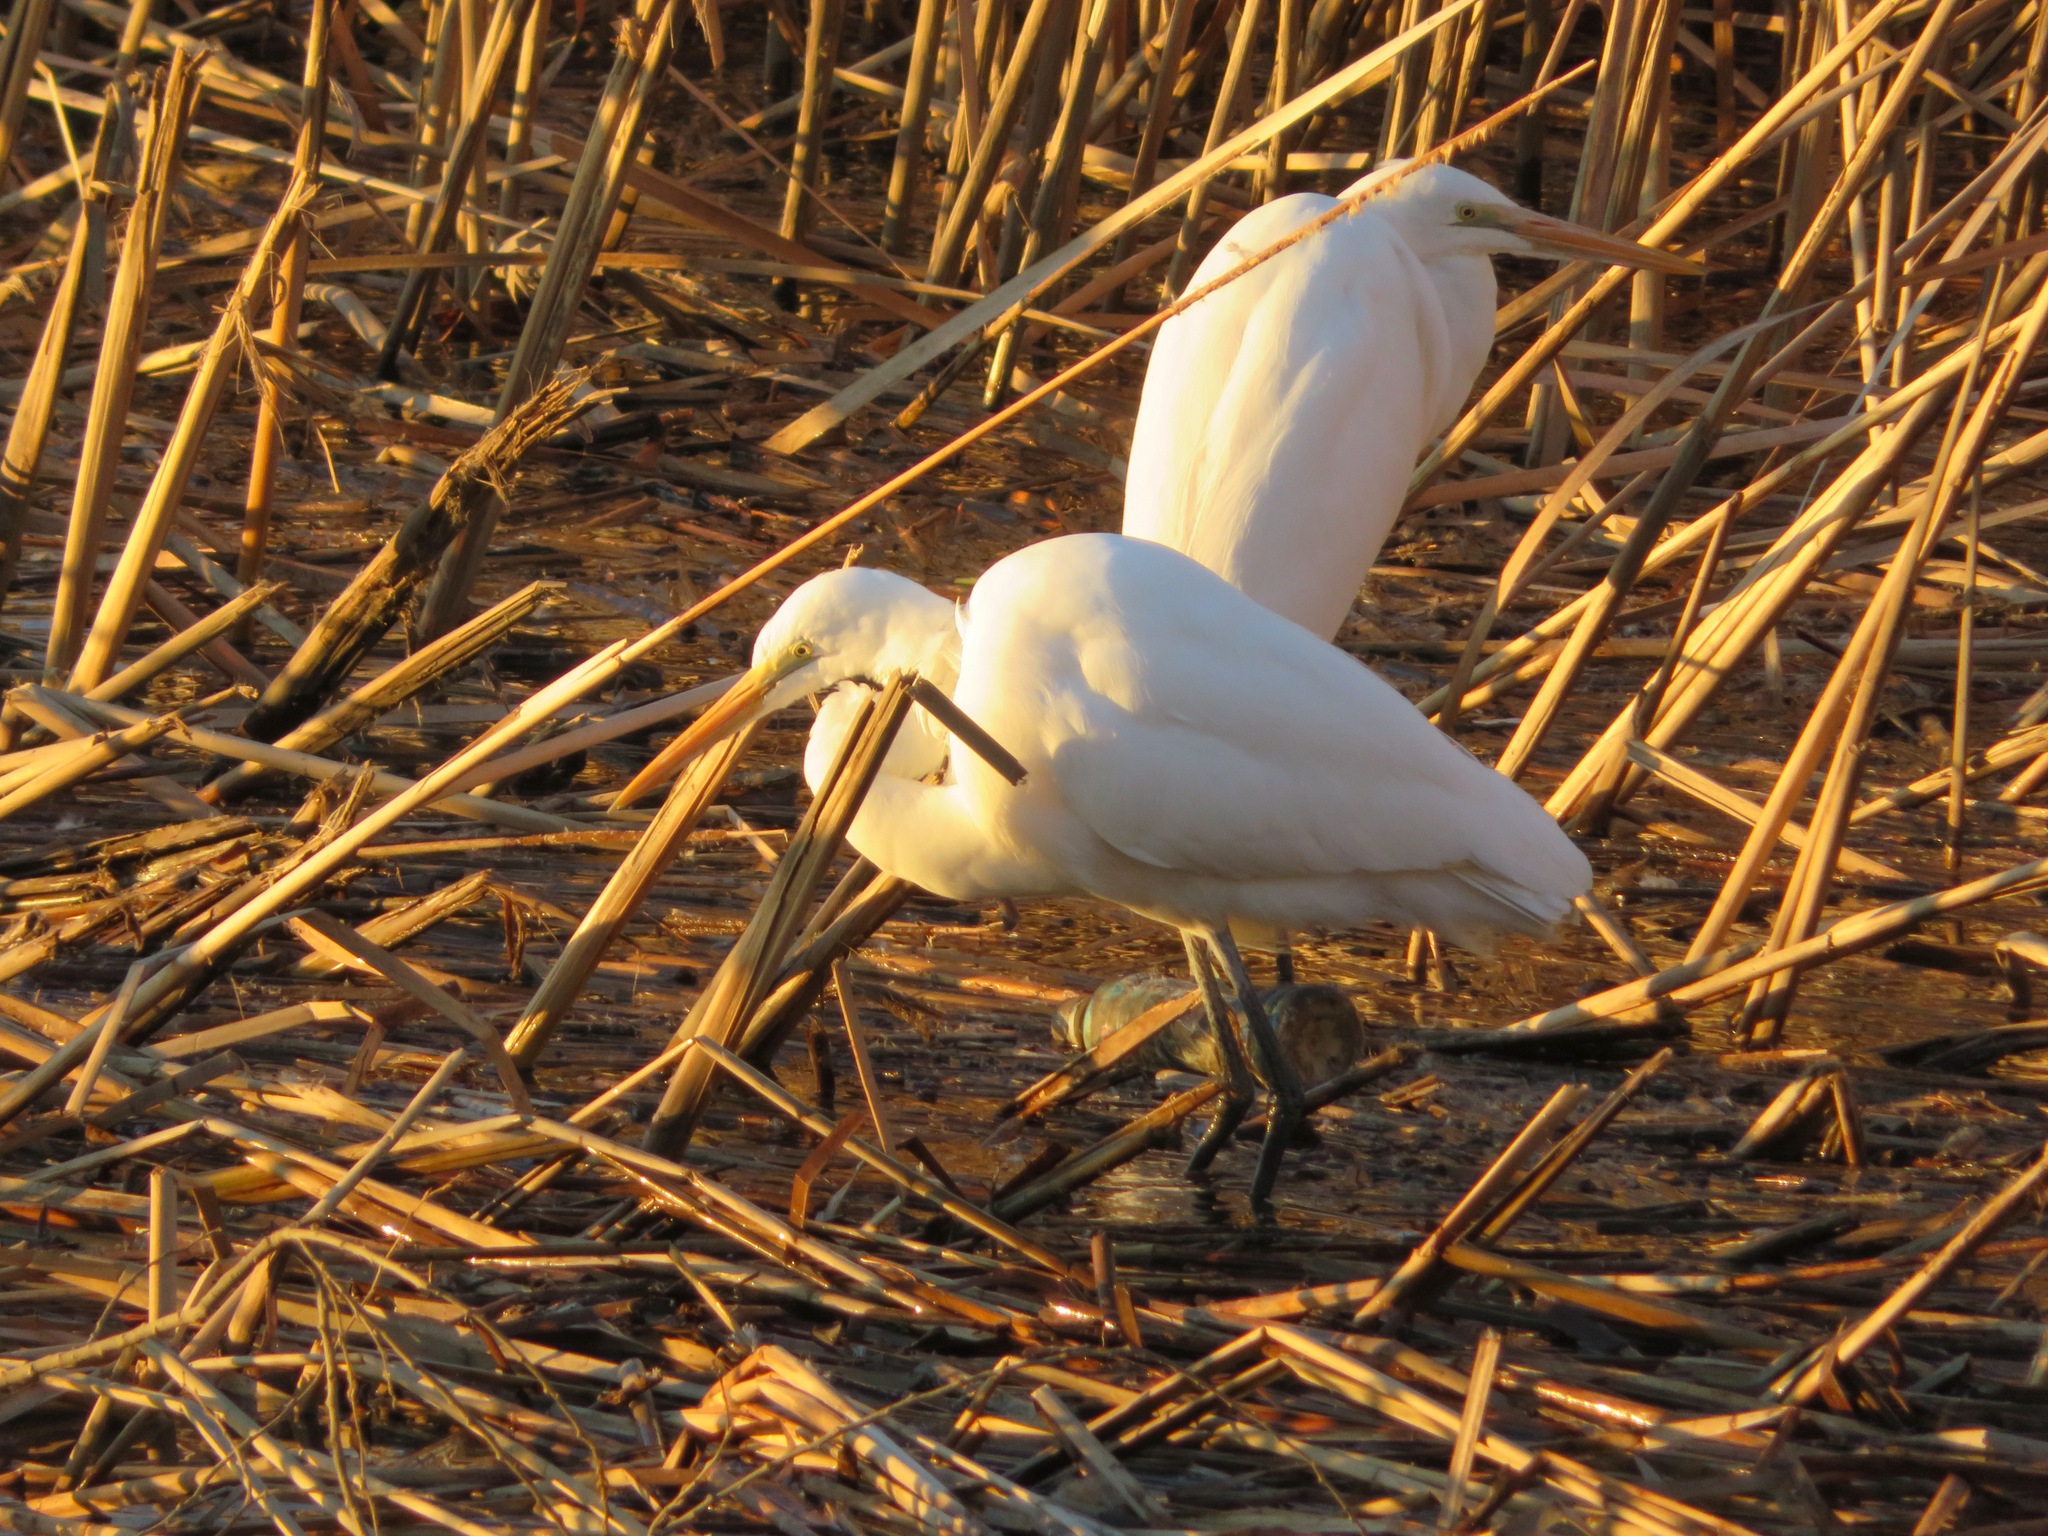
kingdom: Animalia
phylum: Chordata
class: Aves
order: Pelecaniformes
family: Ardeidae
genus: Ardea
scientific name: Ardea alba
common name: Great egret
